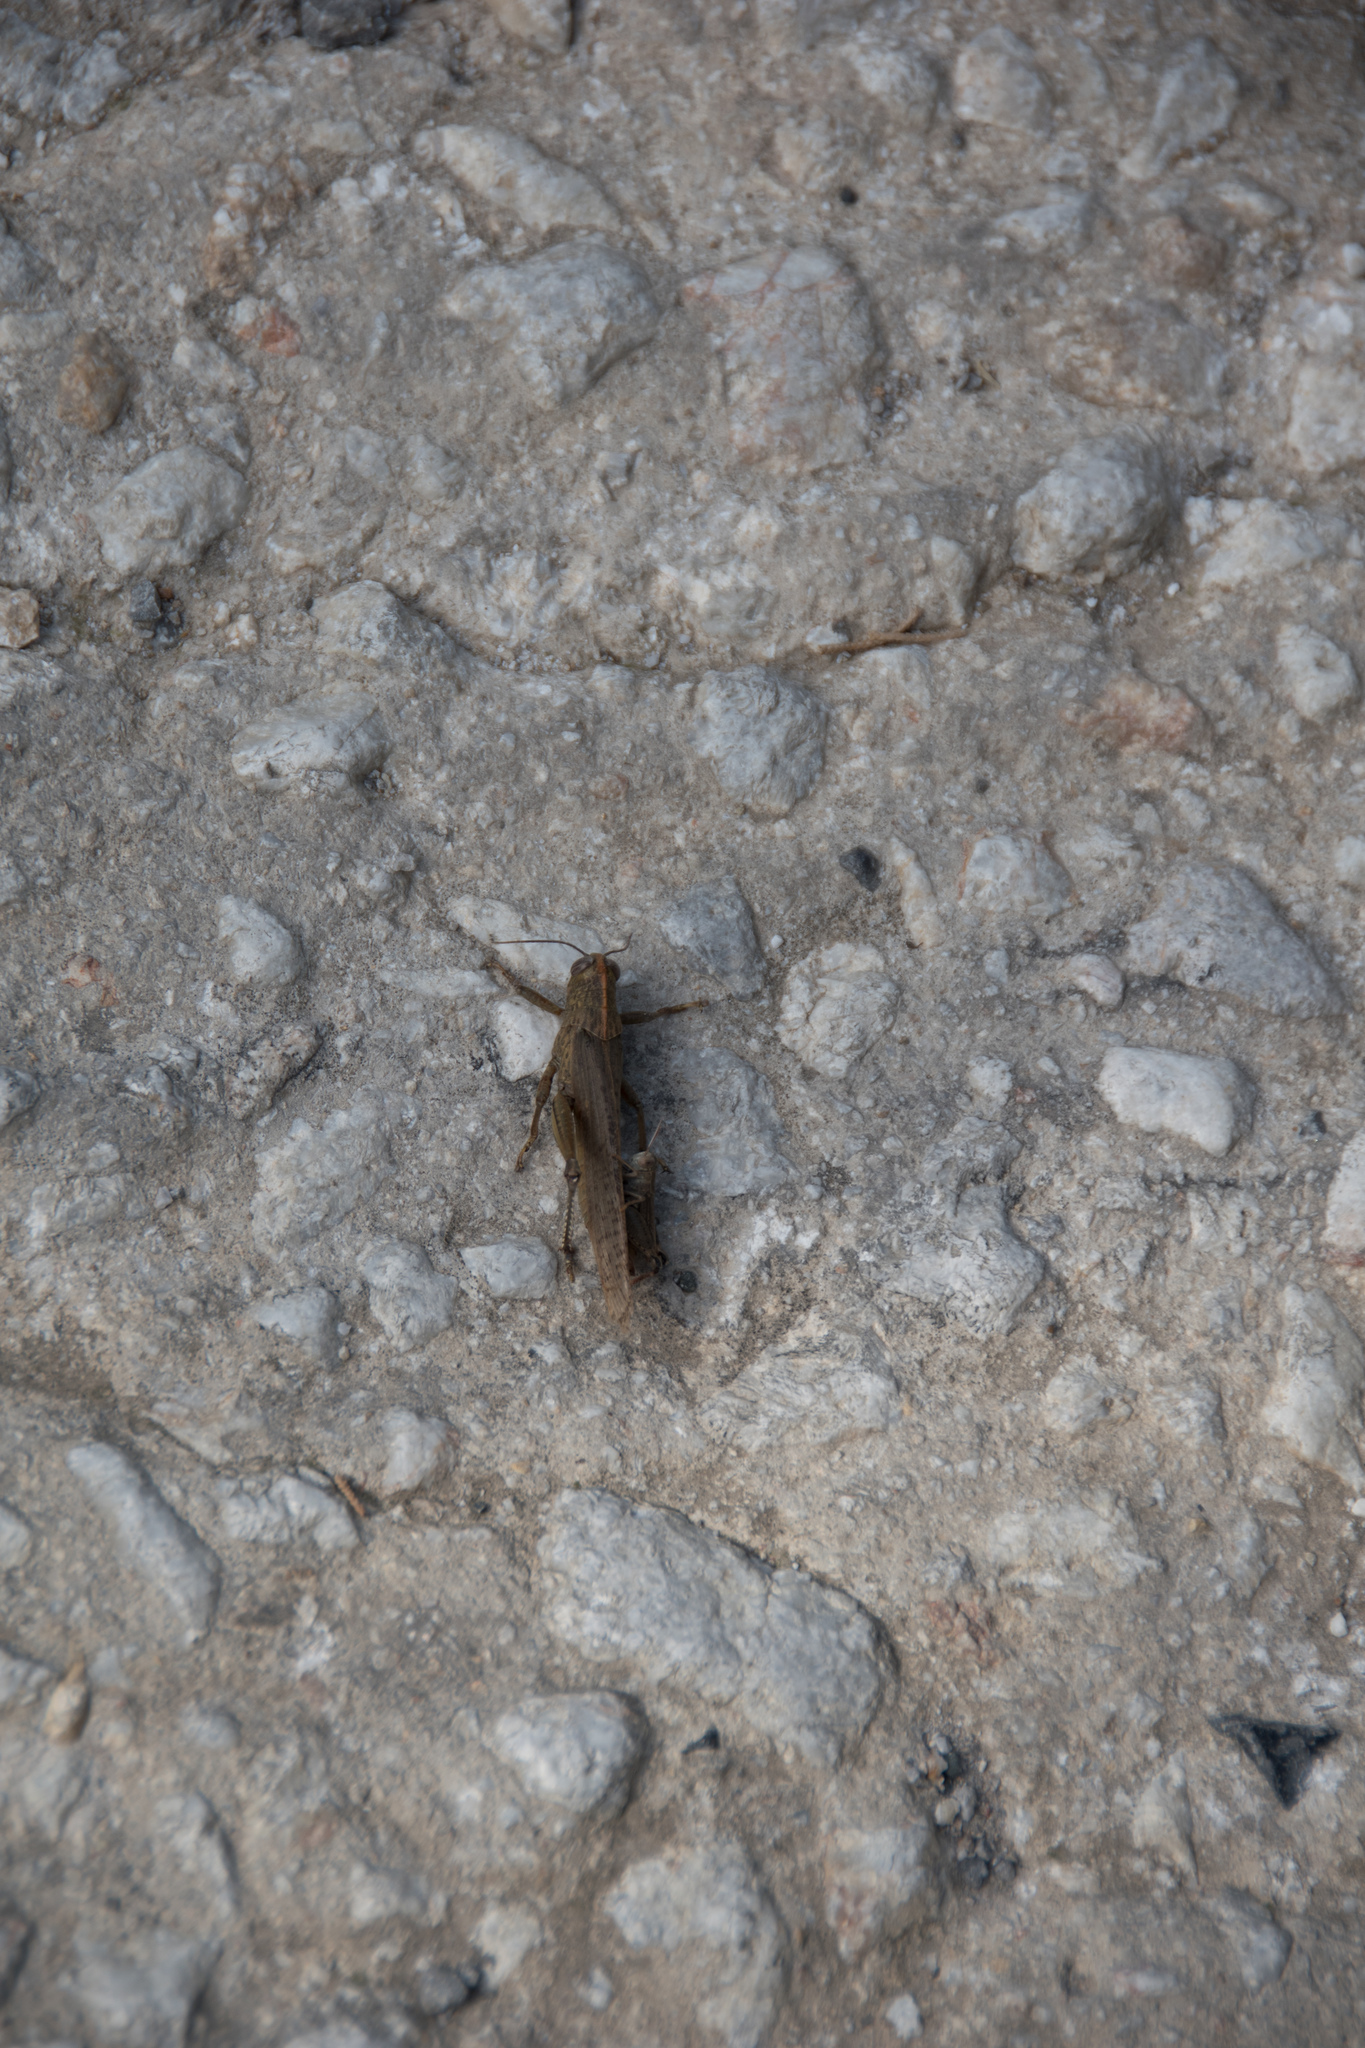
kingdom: Animalia
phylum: Arthropoda
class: Insecta
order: Orthoptera
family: Acrididae
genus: Anacridium
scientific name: Anacridium aegyptium
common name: Egyptian grasshopper
